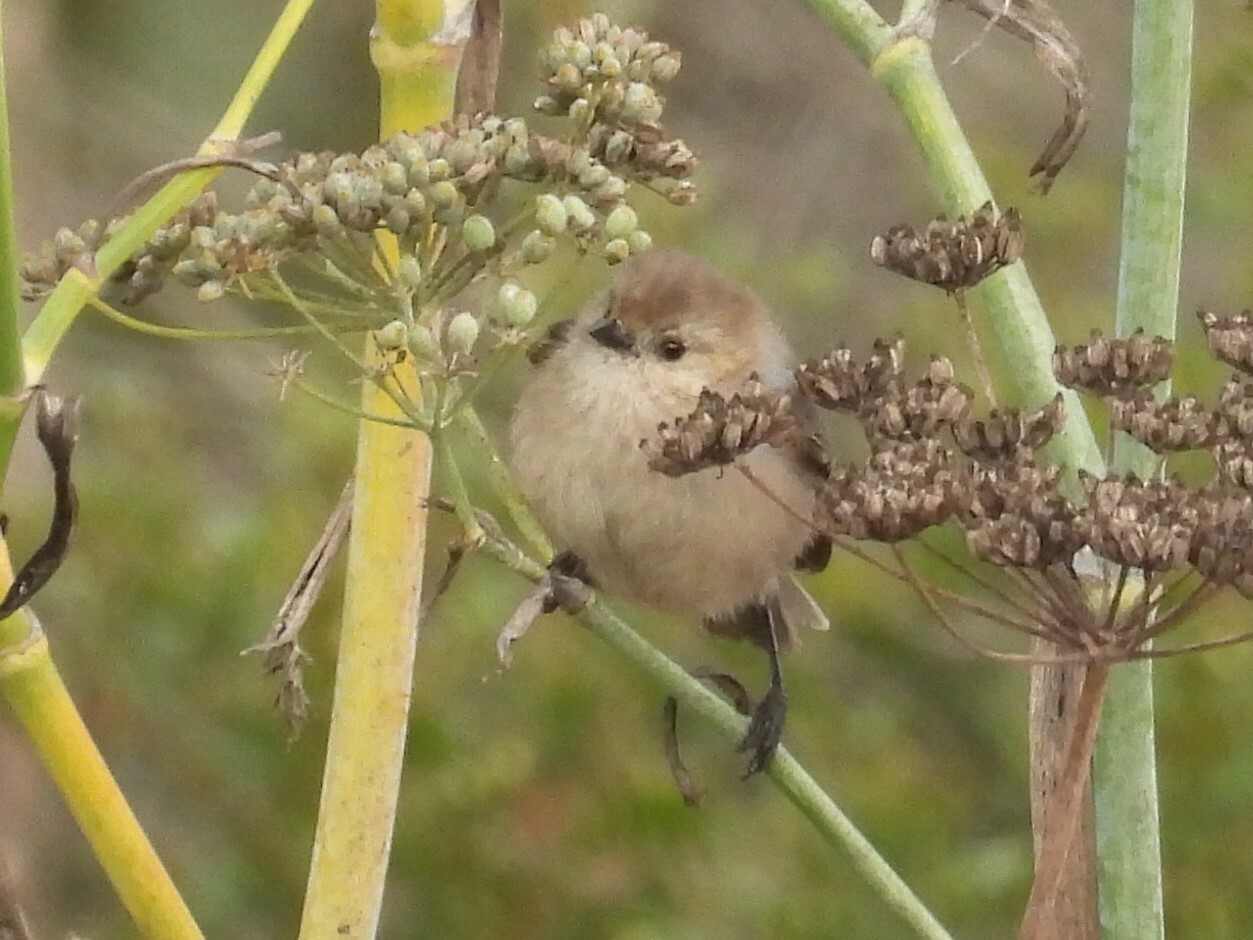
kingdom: Animalia
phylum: Chordata
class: Aves
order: Passeriformes
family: Aegithalidae
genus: Psaltriparus
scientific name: Psaltriparus minimus
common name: American bushtit
